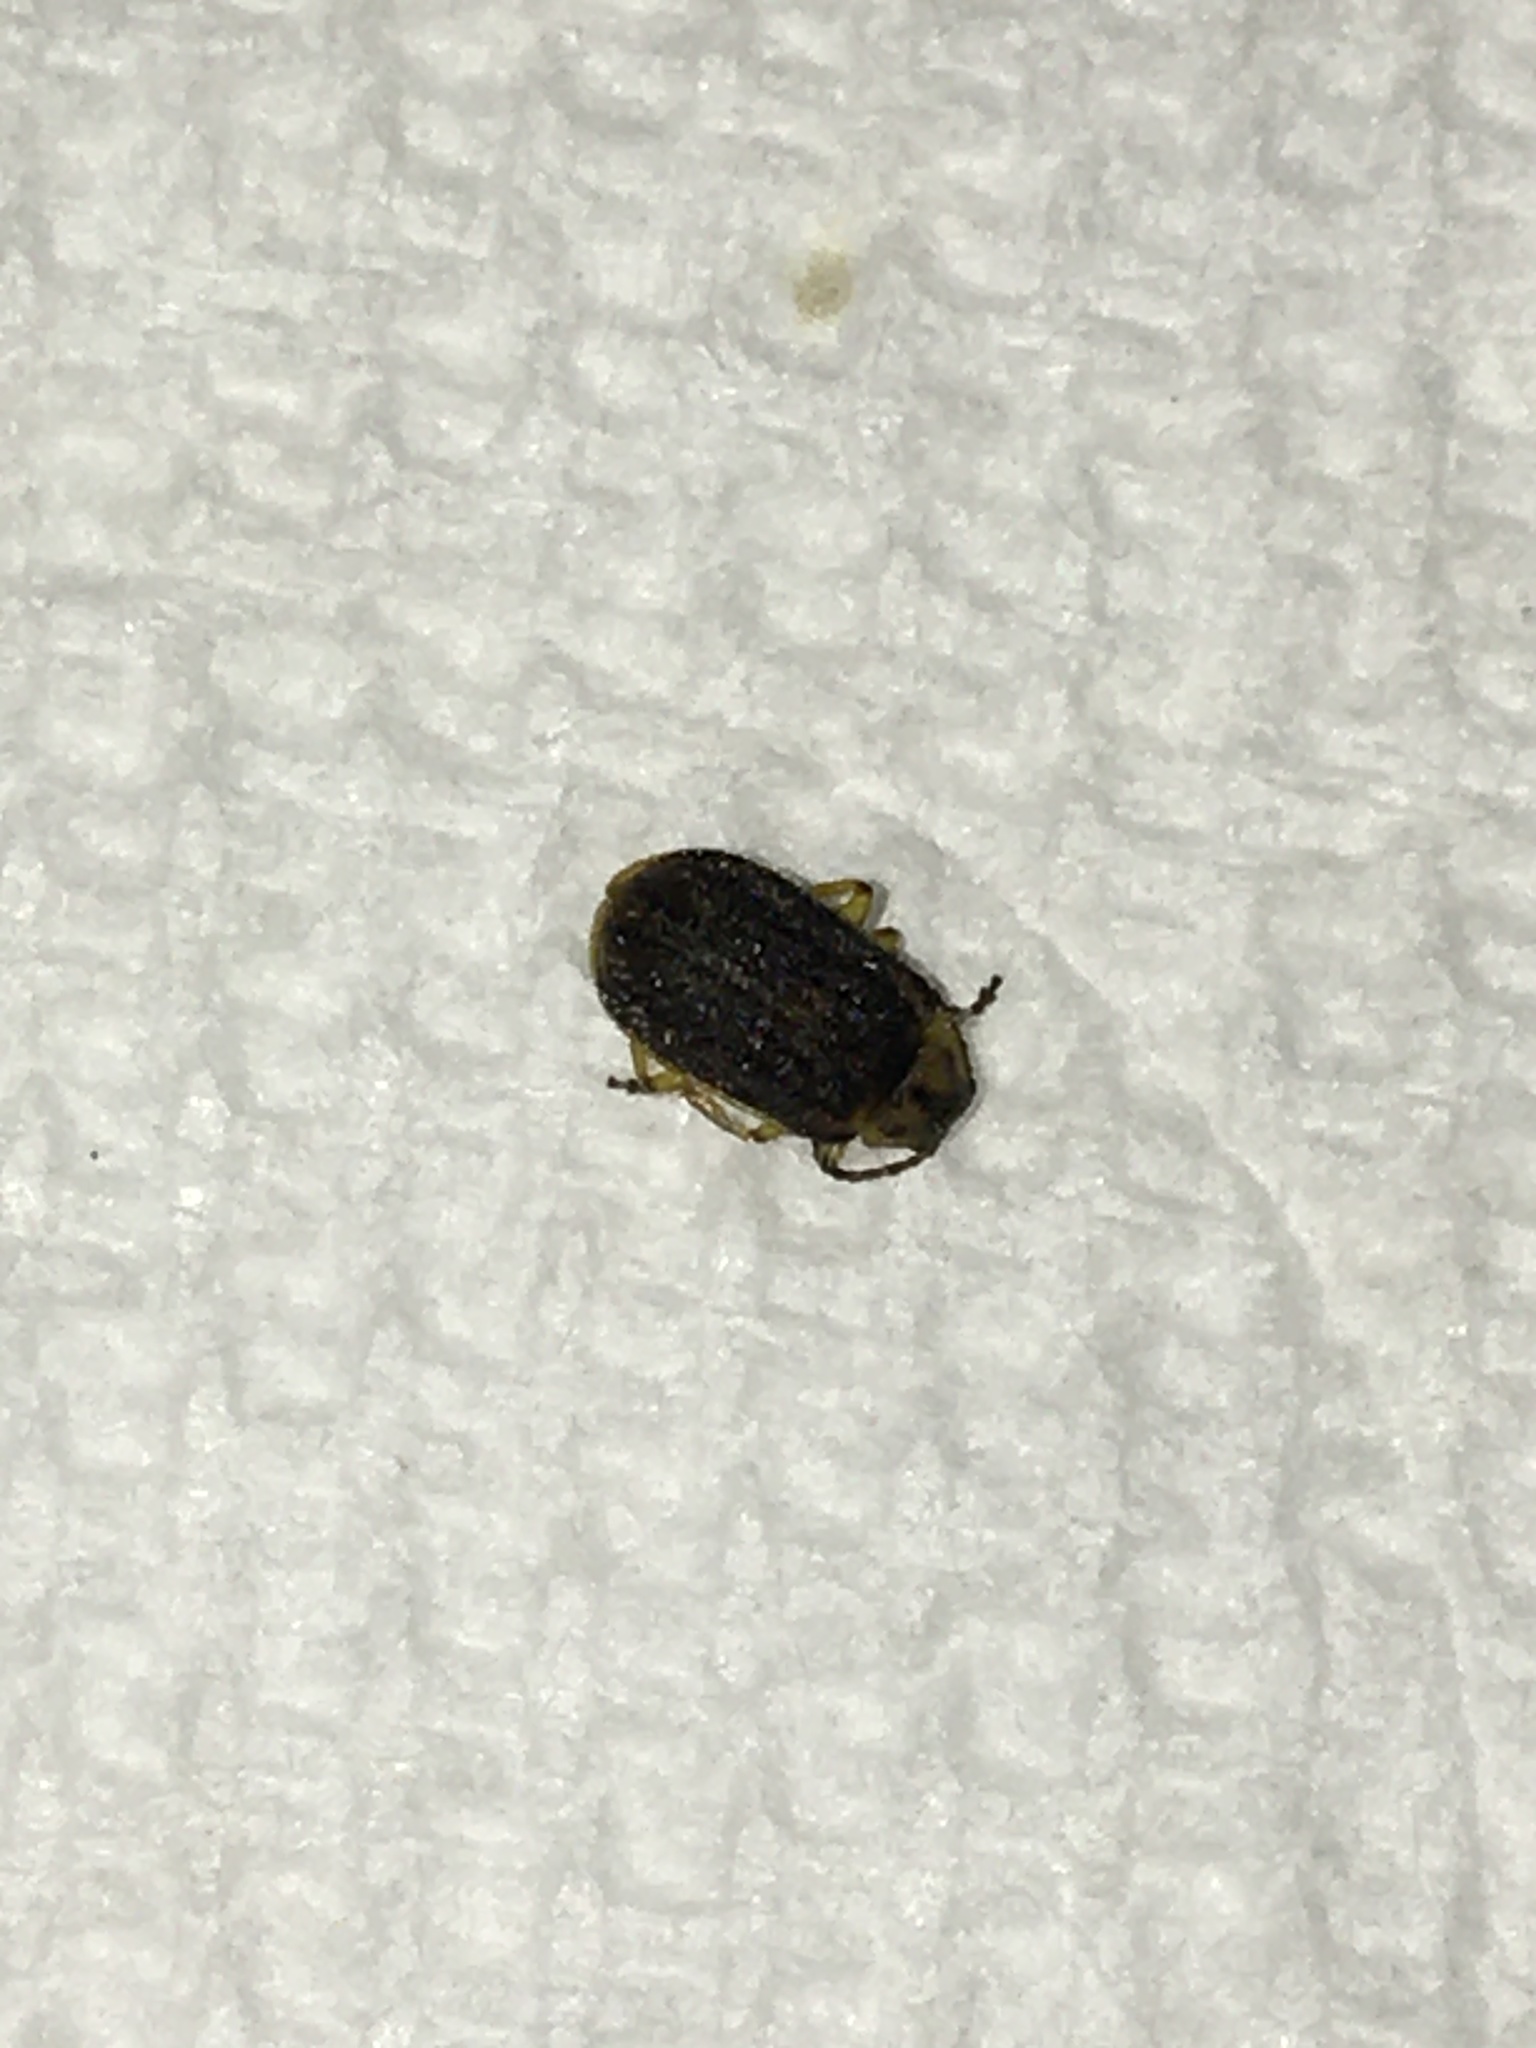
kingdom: Animalia
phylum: Arthropoda
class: Insecta
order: Coleoptera
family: Chrysomelidae
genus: Ophraella
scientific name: Ophraella communa
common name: Ragweed leaf beetle
